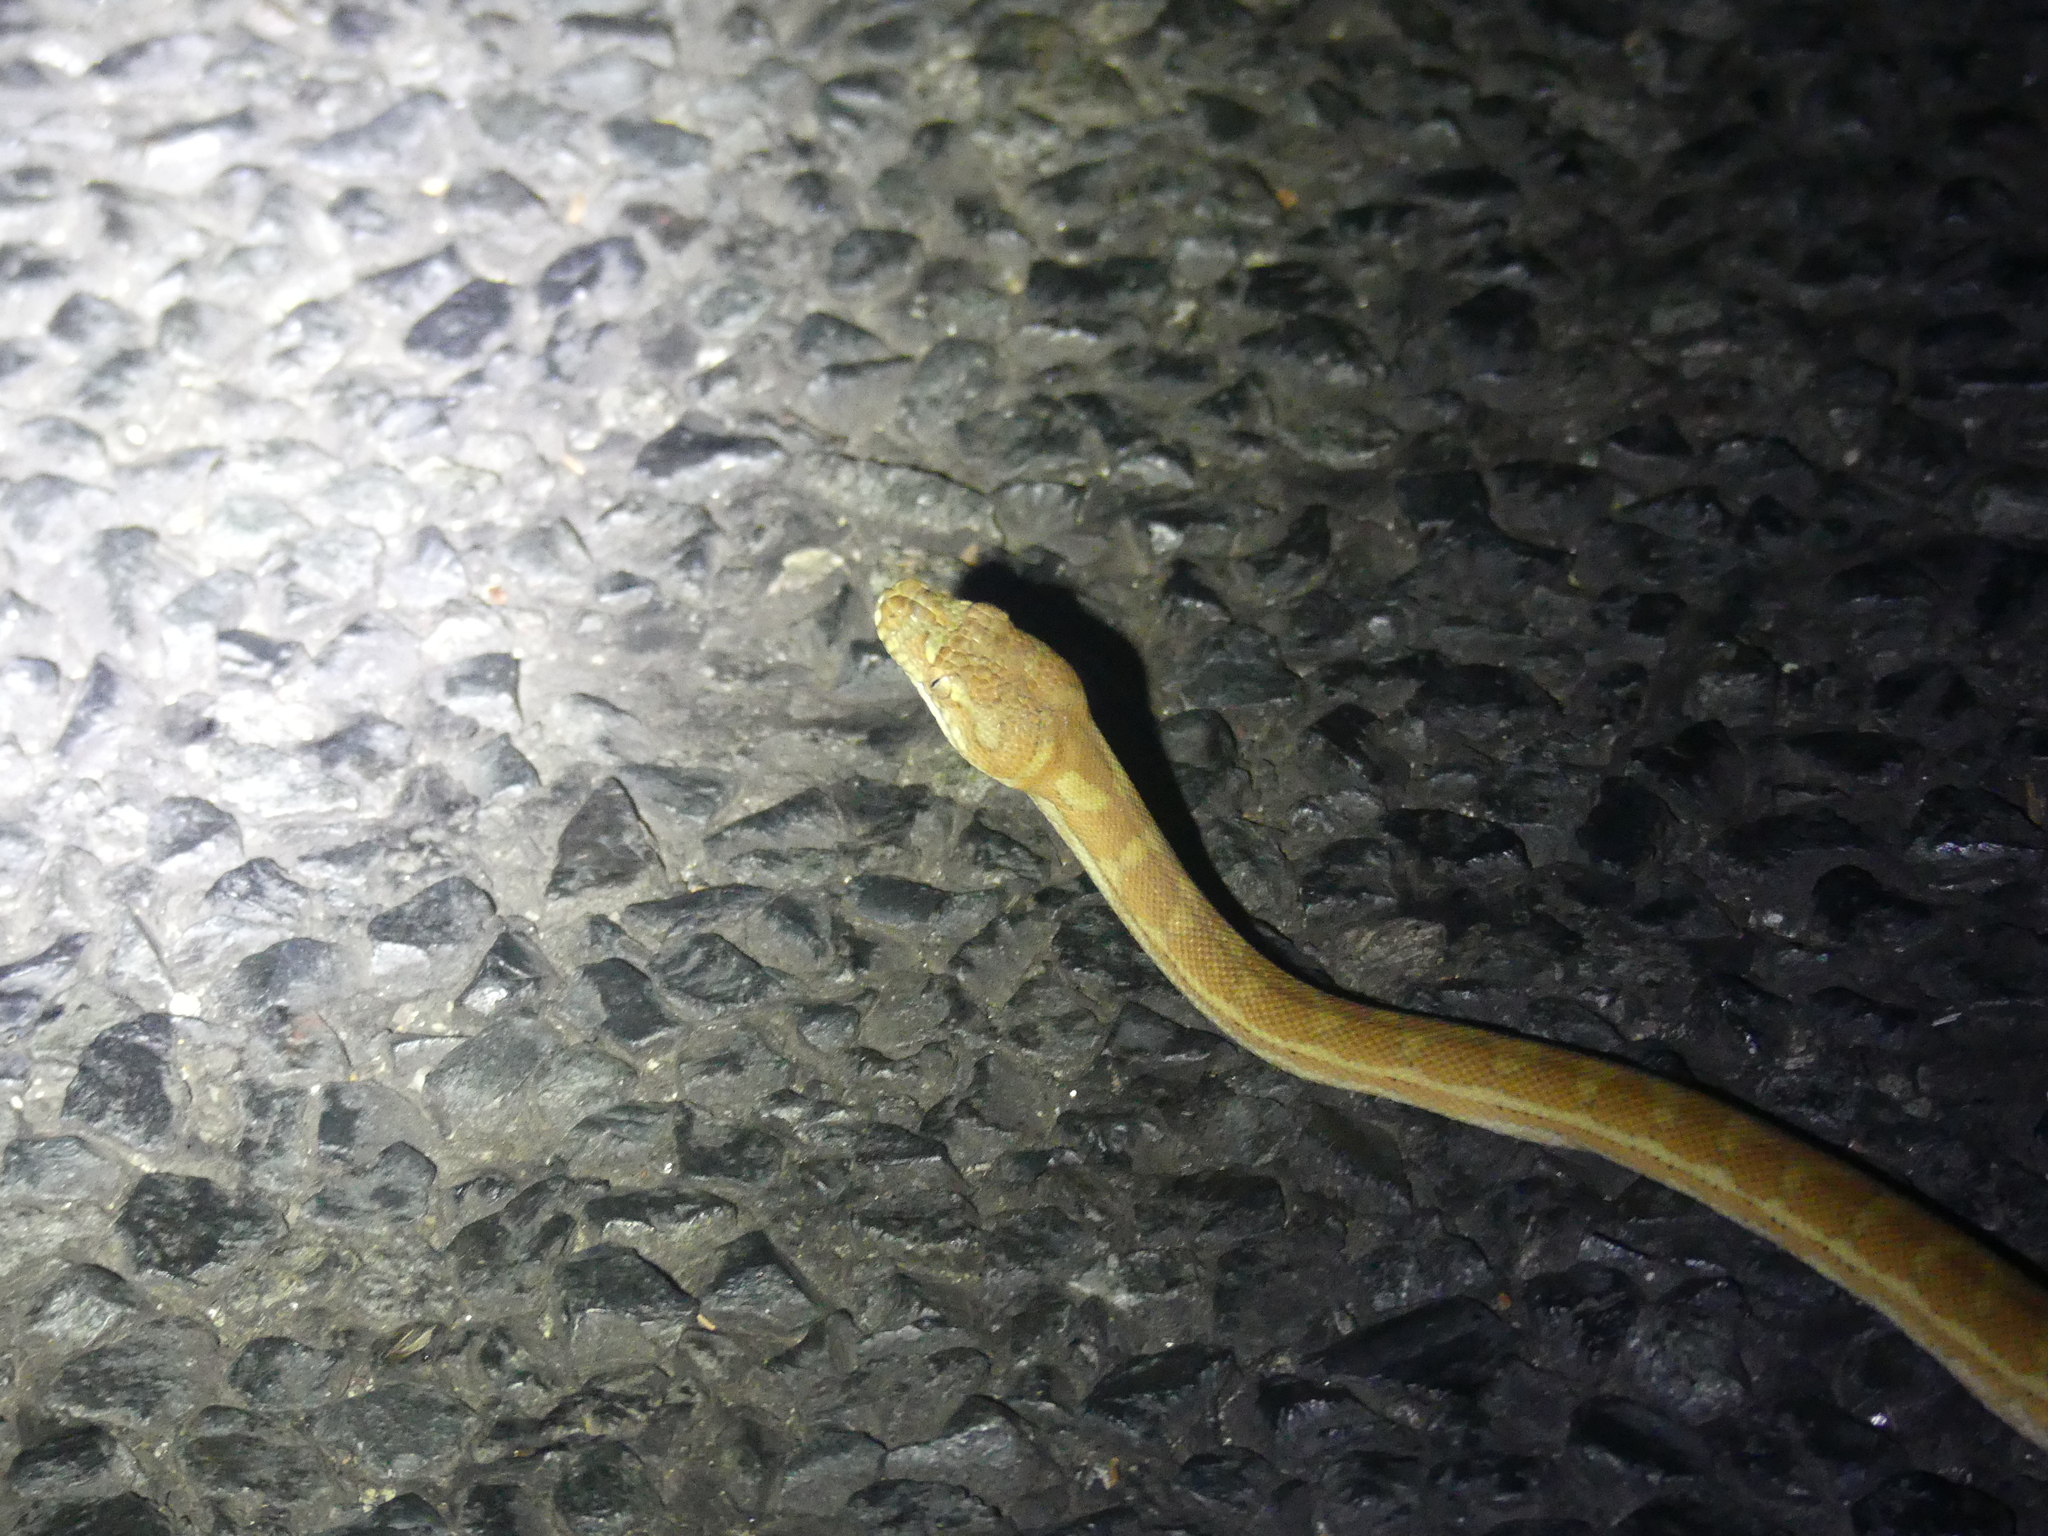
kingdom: Animalia
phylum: Chordata
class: Squamata
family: Pythonidae
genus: Morelia
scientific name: Morelia spilota
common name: Carpet python
